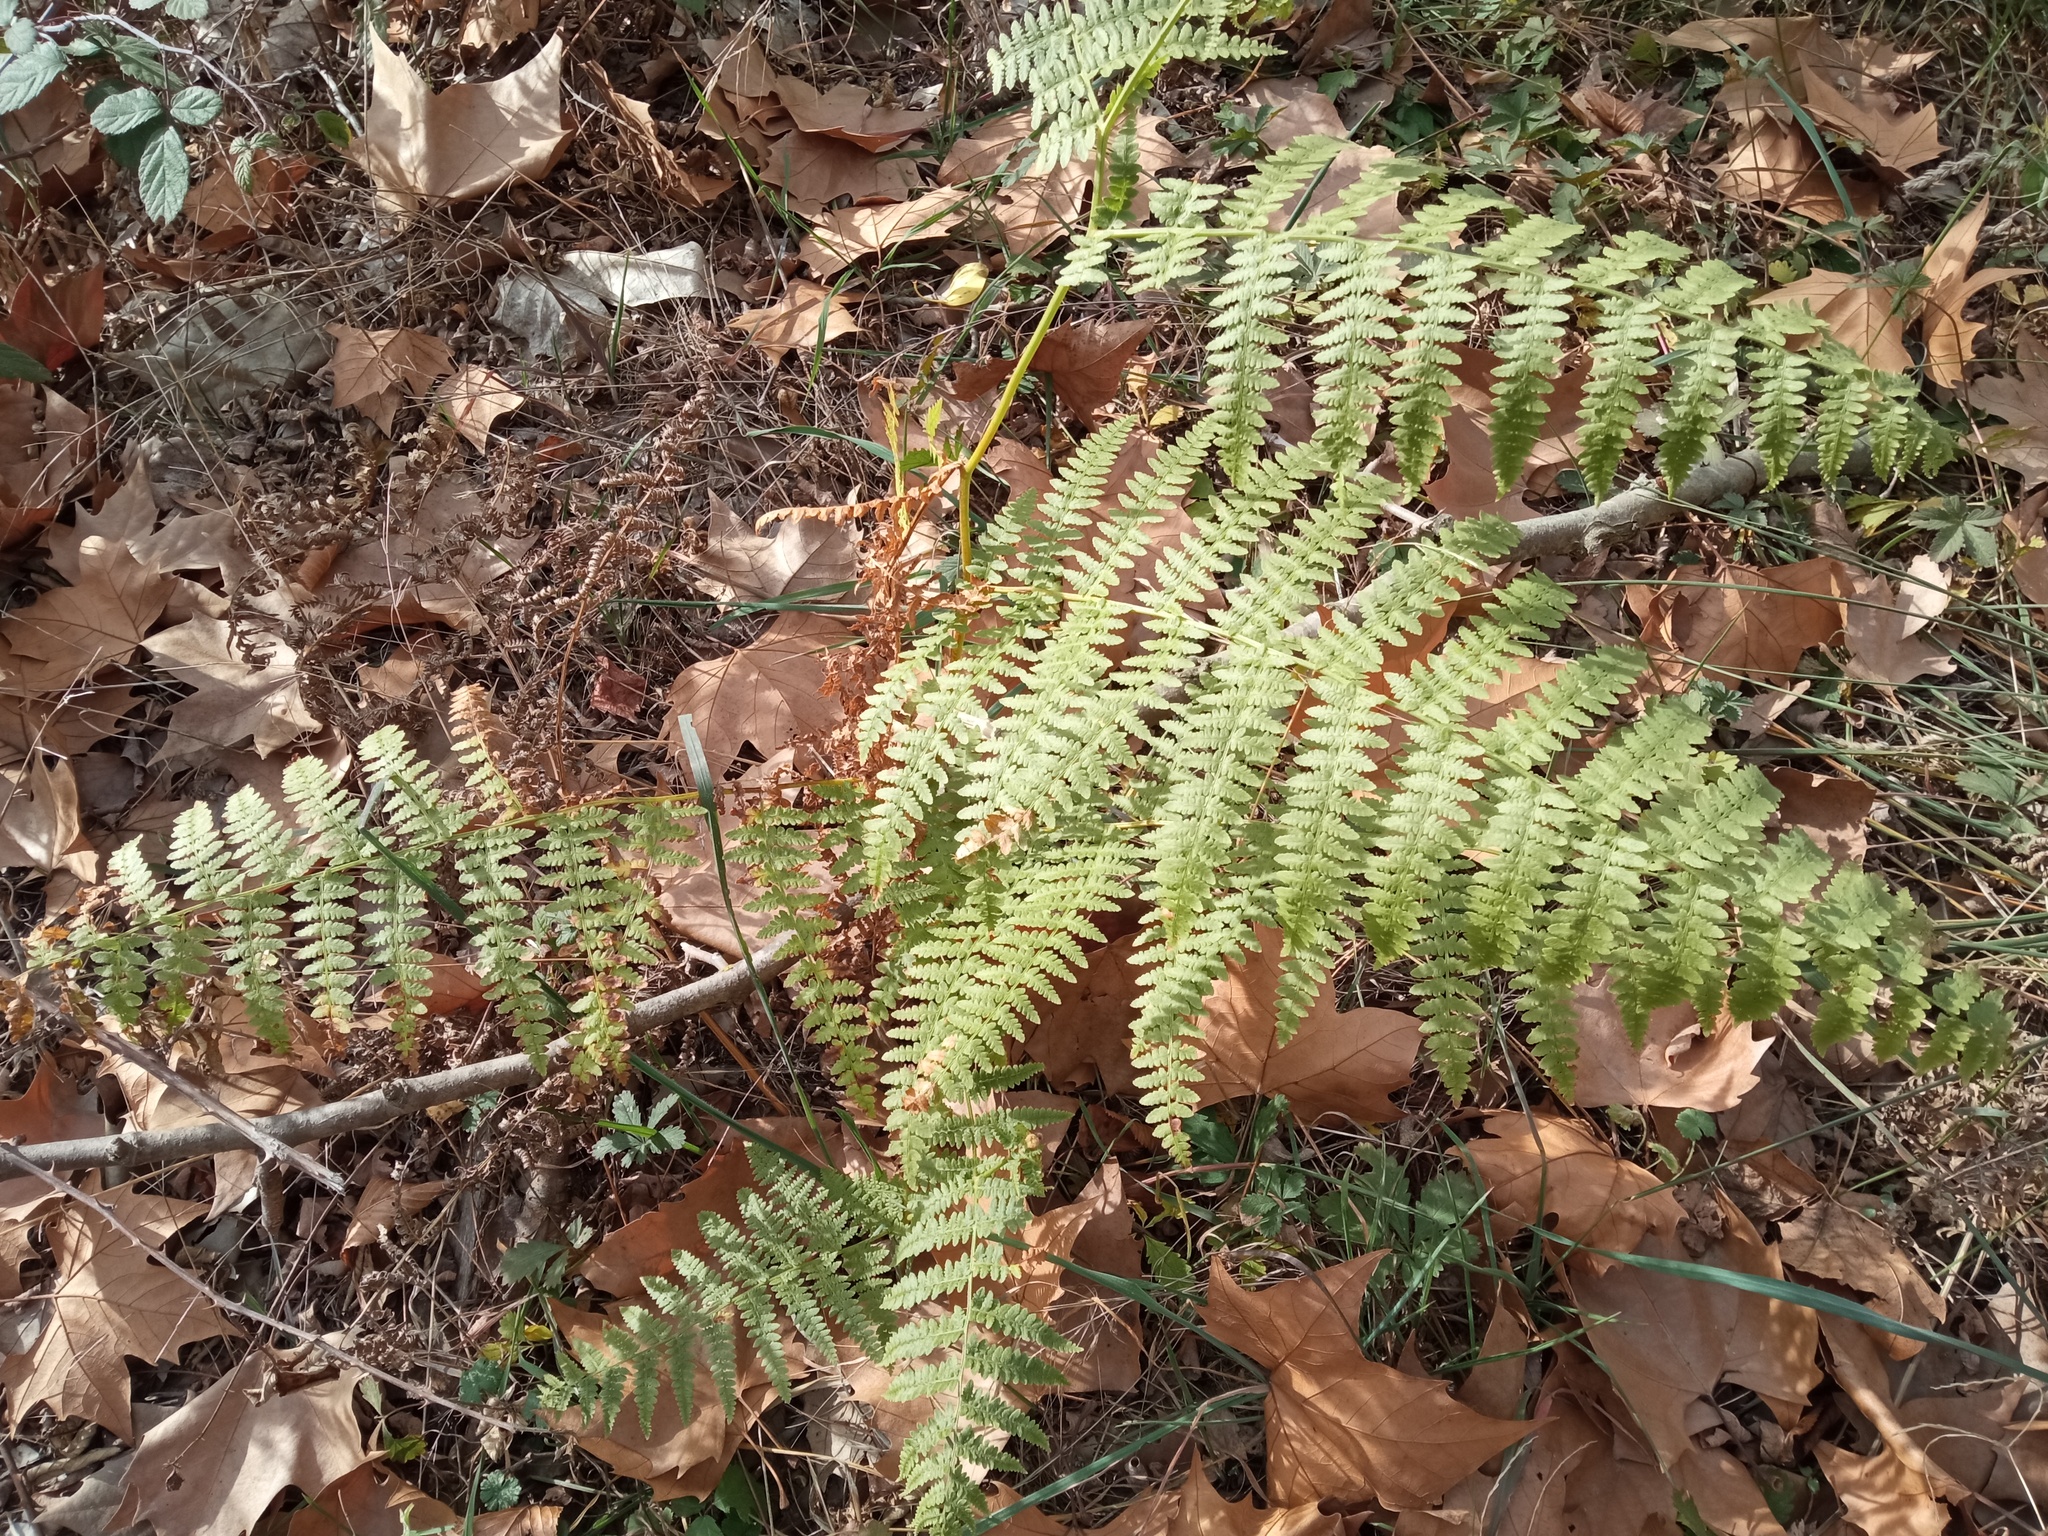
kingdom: Plantae
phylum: Tracheophyta
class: Polypodiopsida
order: Polypodiales
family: Dennstaedtiaceae
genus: Pteridium
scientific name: Pteridium aquilinum
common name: Bracken
